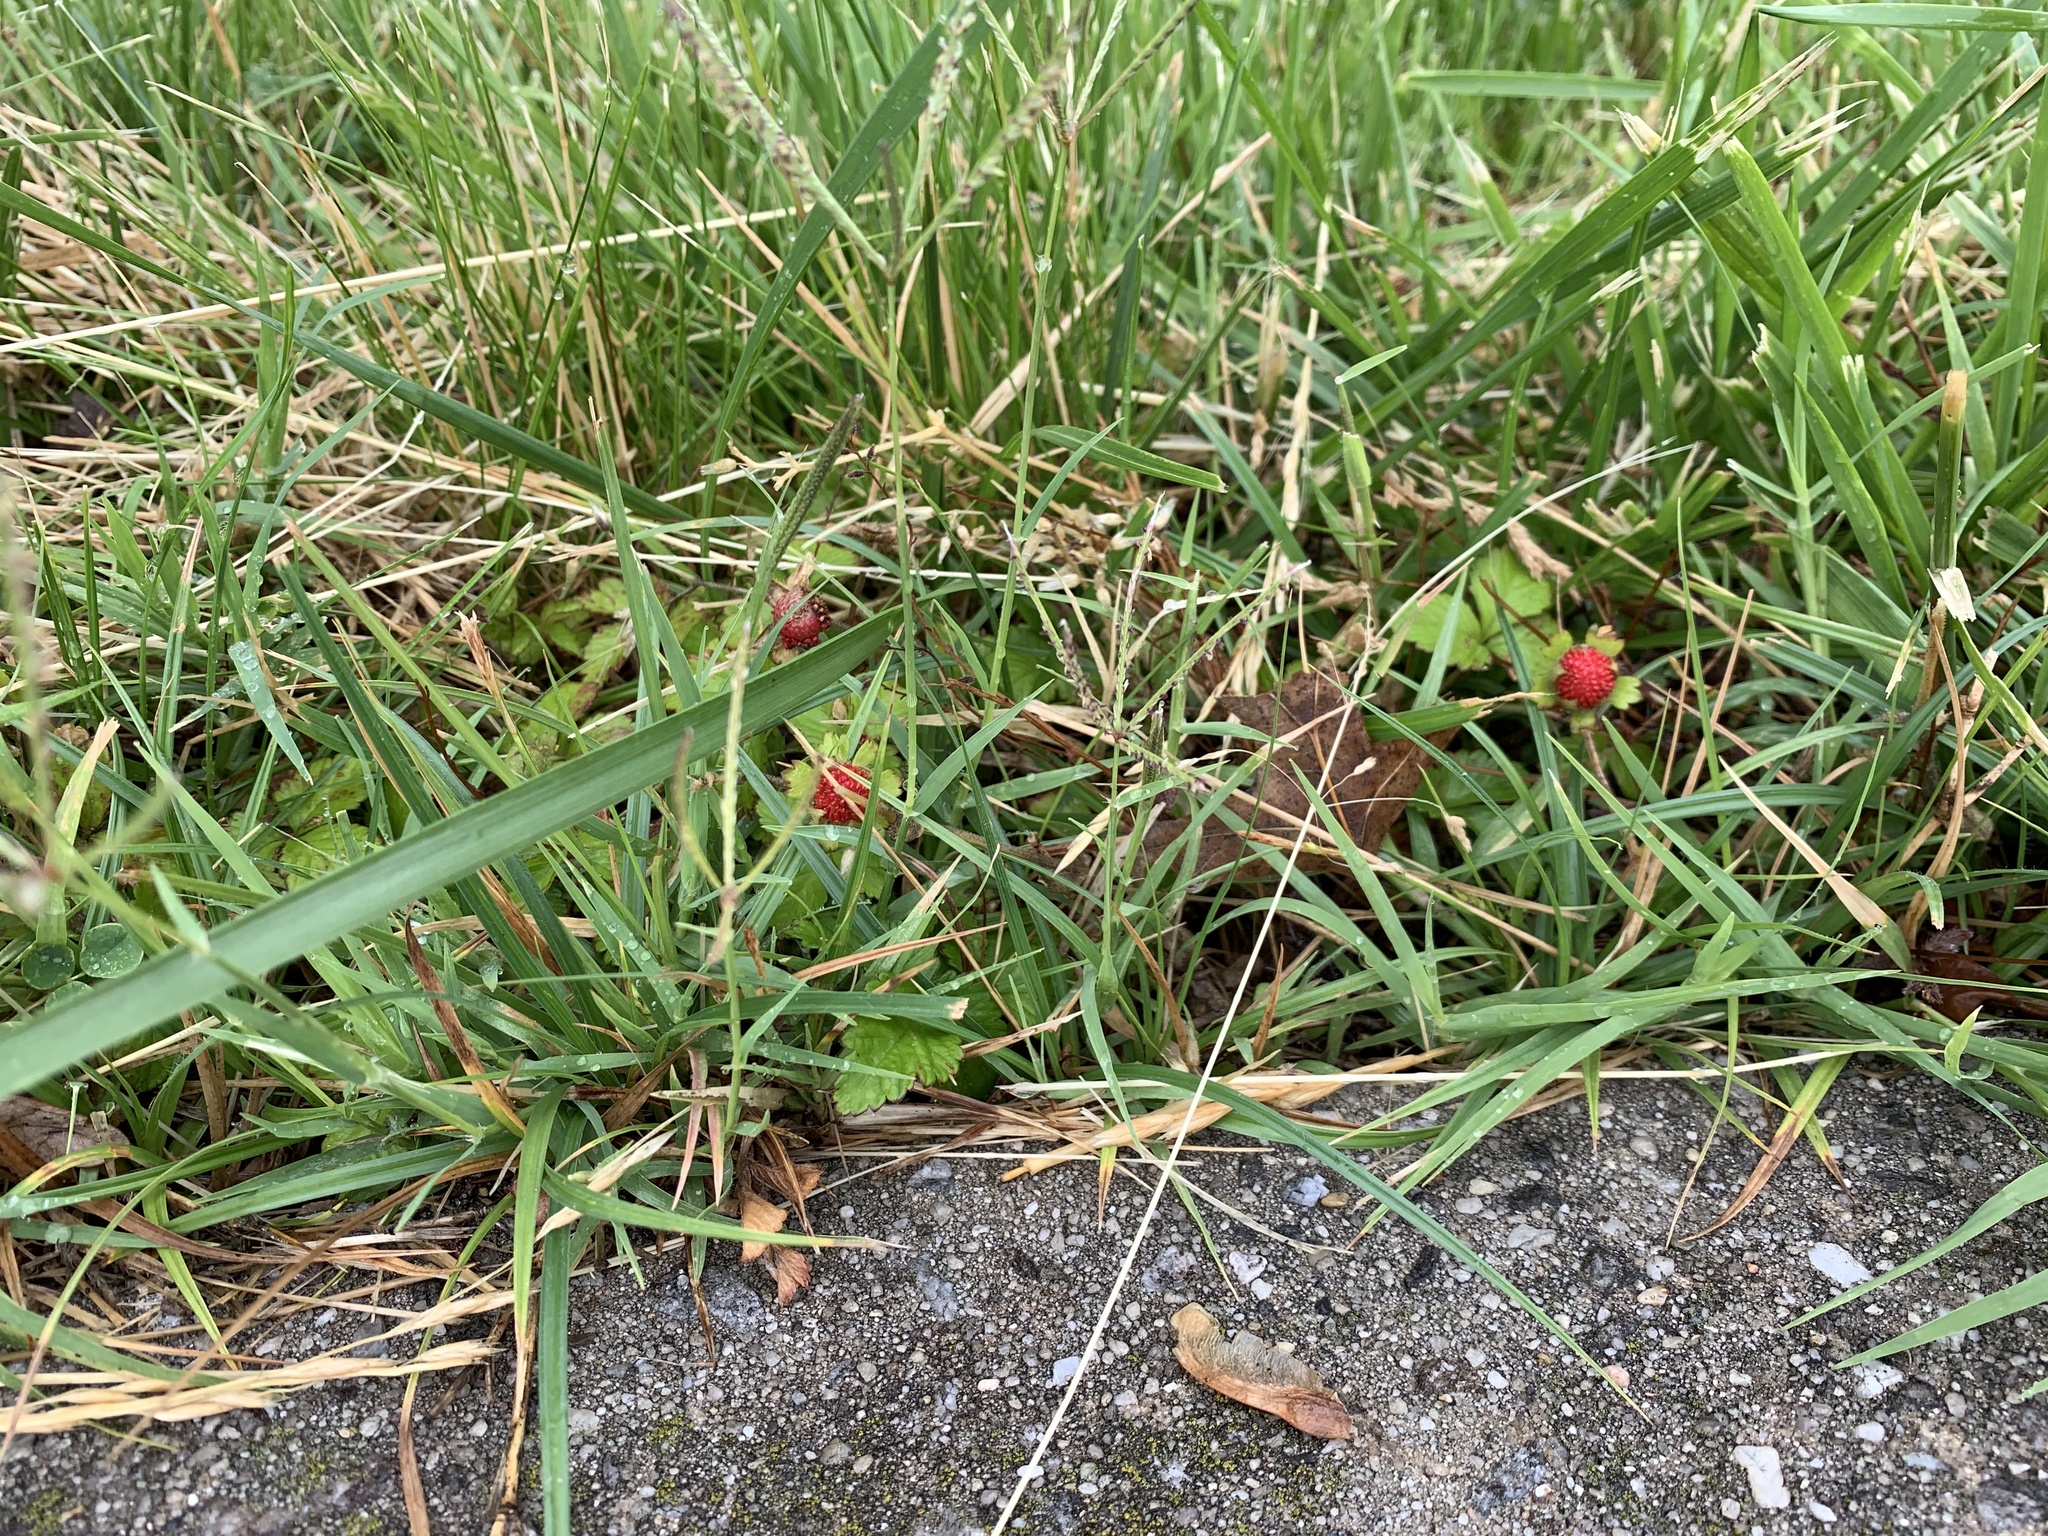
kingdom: Plantae
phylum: Tracheophyta
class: Magnoliopsida
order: Rosales
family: Rosaceae
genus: Potentilla
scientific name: Potentilla indica
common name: Yellow-flowered strawberry
